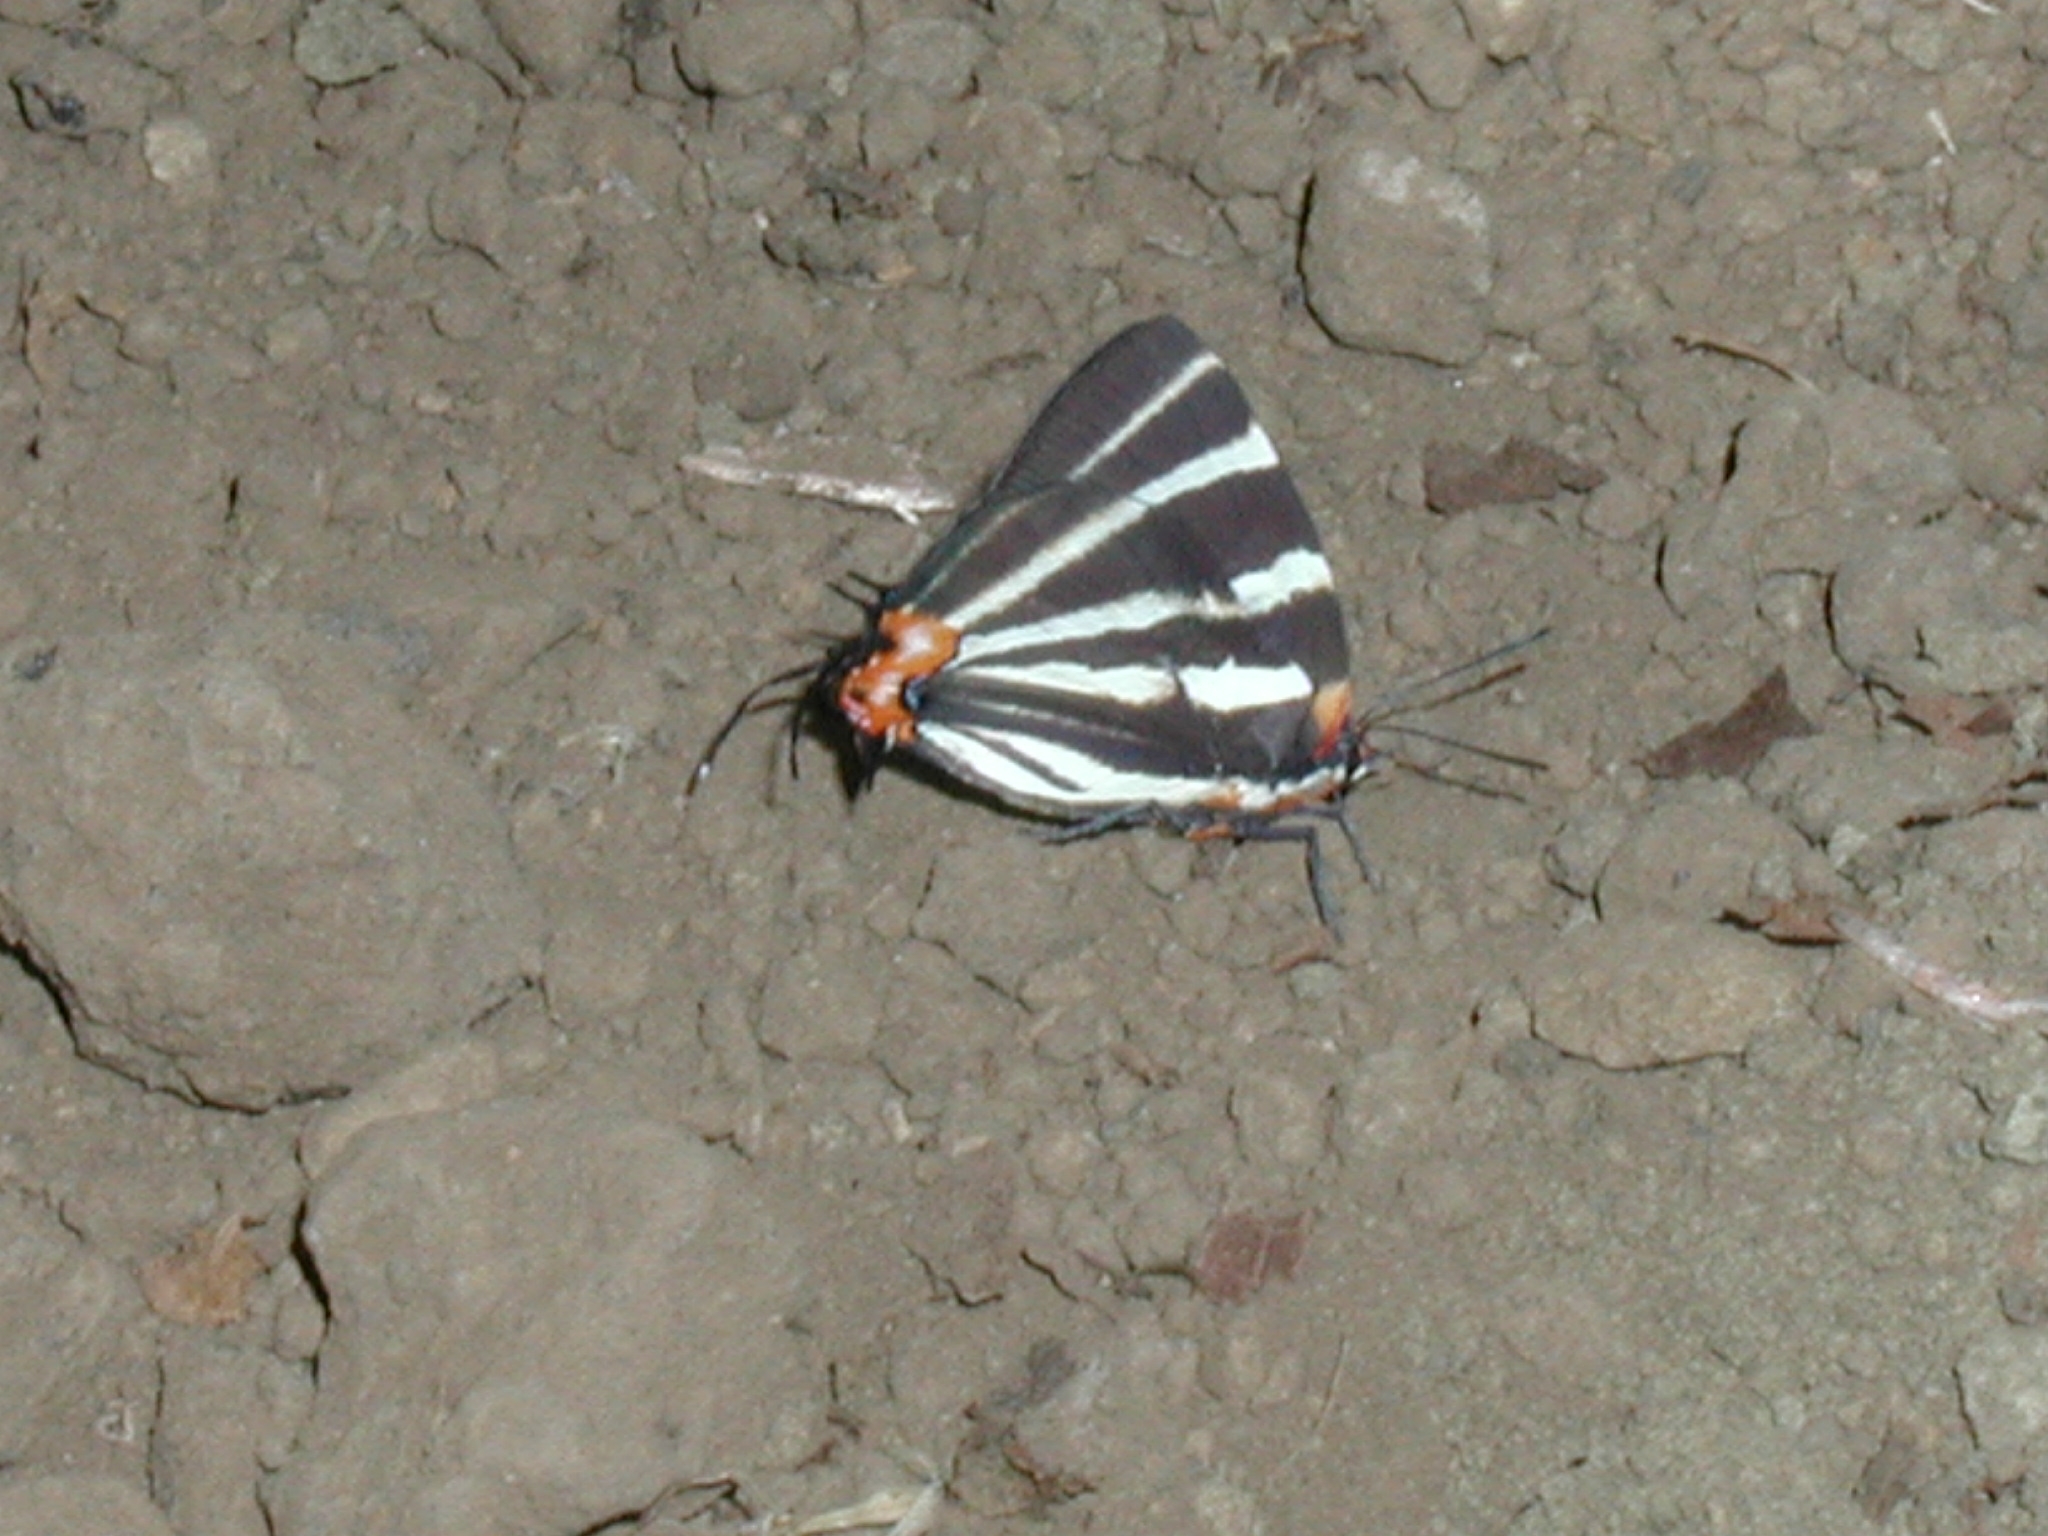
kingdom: Animalia
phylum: Arthropoda
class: Insecta
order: Lepidoptera
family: Lycaenidae
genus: Thecla
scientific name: Thecla bathildis
